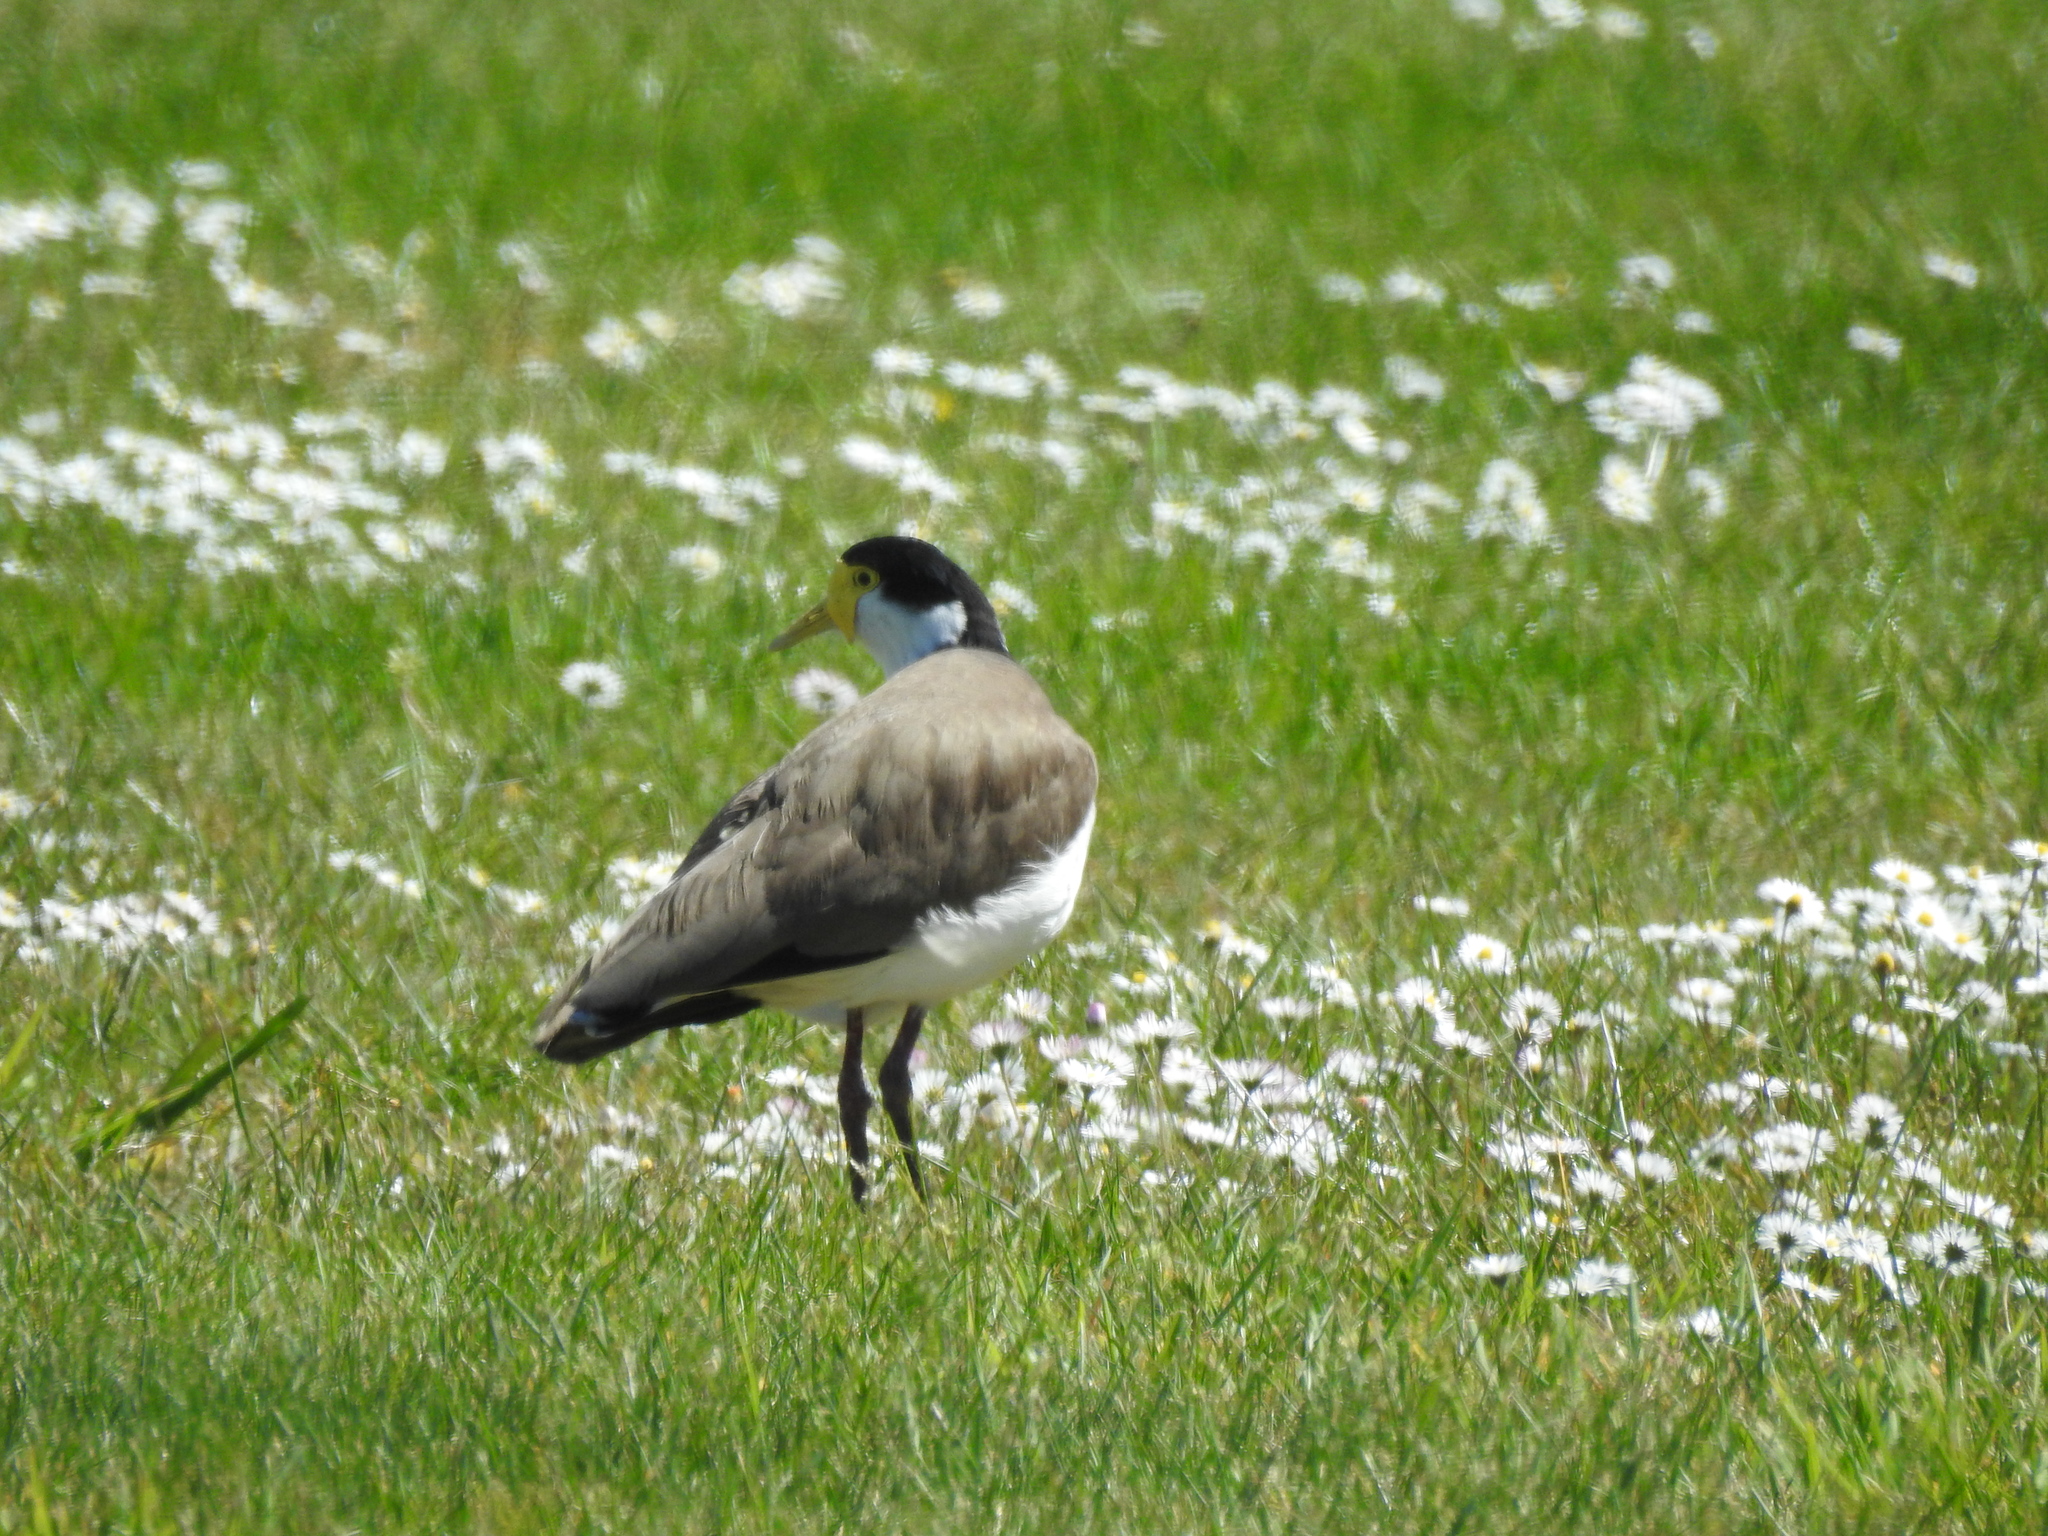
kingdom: Animalia
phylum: Chordata
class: Aves
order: Charadriiformes
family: Charadriidae
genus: Vanellus
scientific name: Vanellus miles
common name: Masked lapwing
